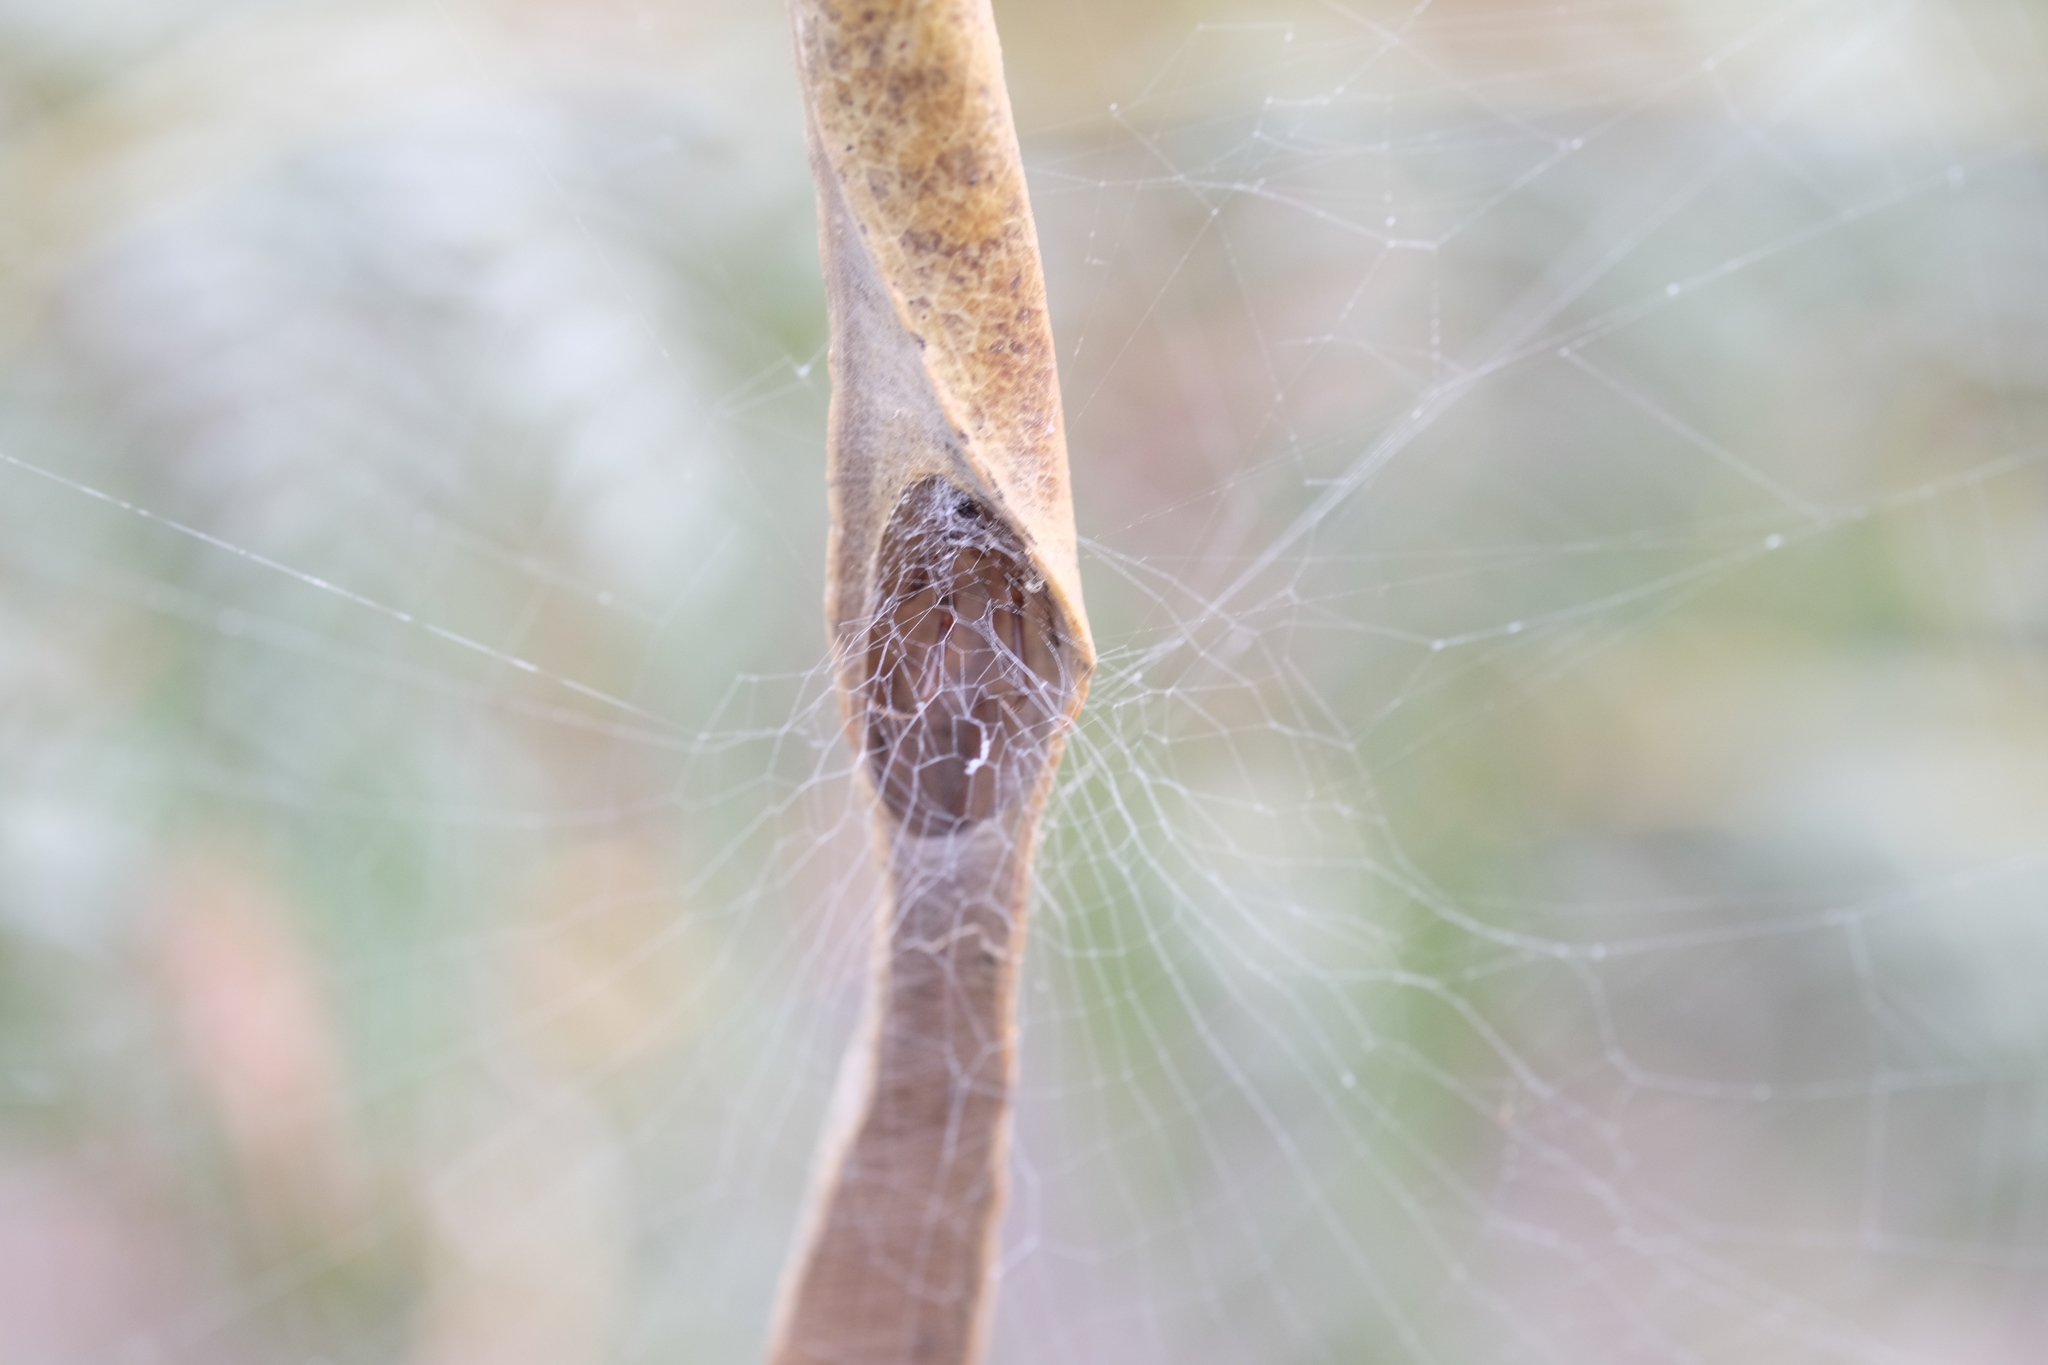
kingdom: Animalia
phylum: Arthropoda
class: Arachnida
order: Araneae
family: Araneidae
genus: Phonognatha
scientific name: Phonognatha graeffei
